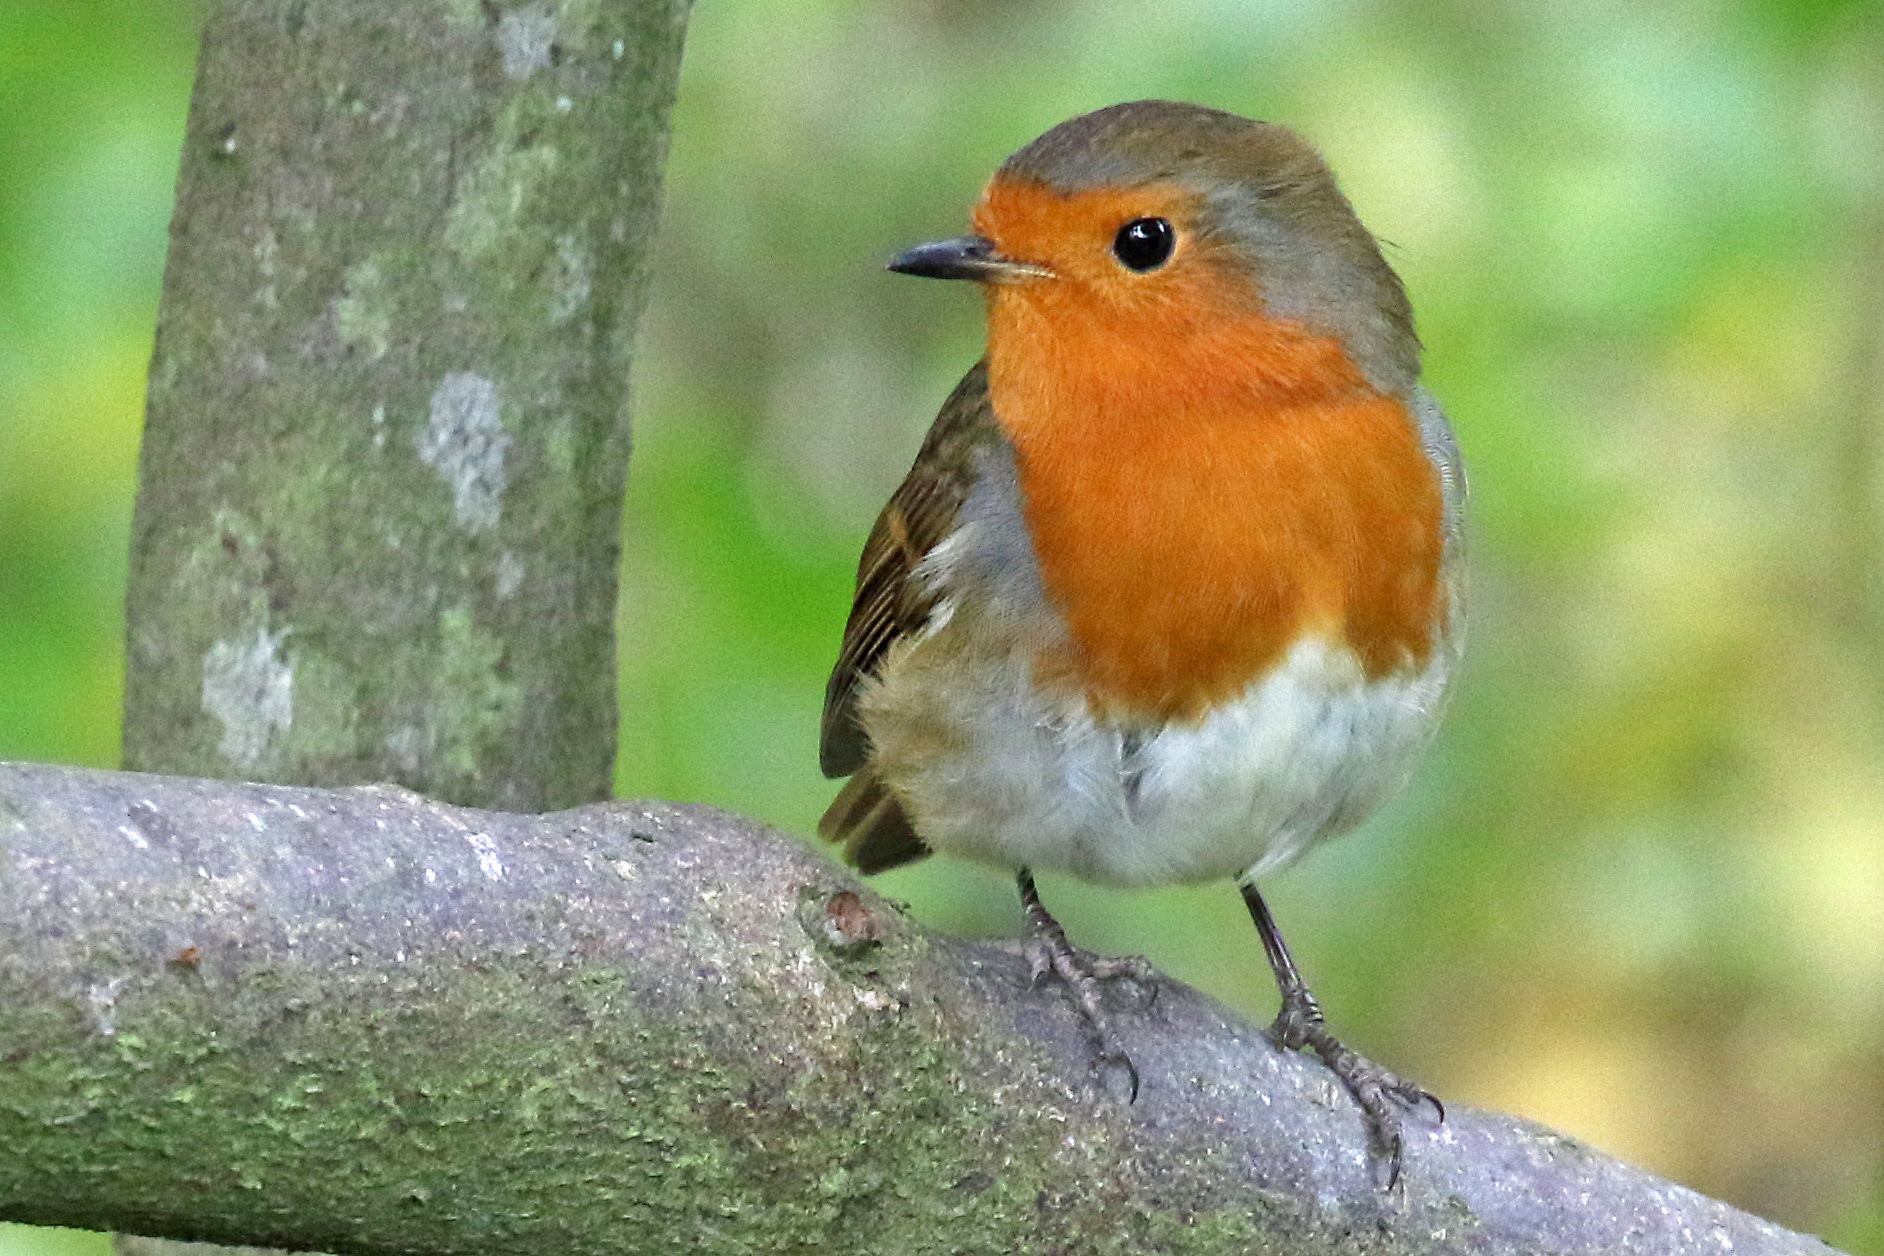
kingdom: Animalia
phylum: Chordata
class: Aves
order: Passeriformes
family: Muscicapidae
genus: Erithacus
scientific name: Erithacus rubecula
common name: European robin
